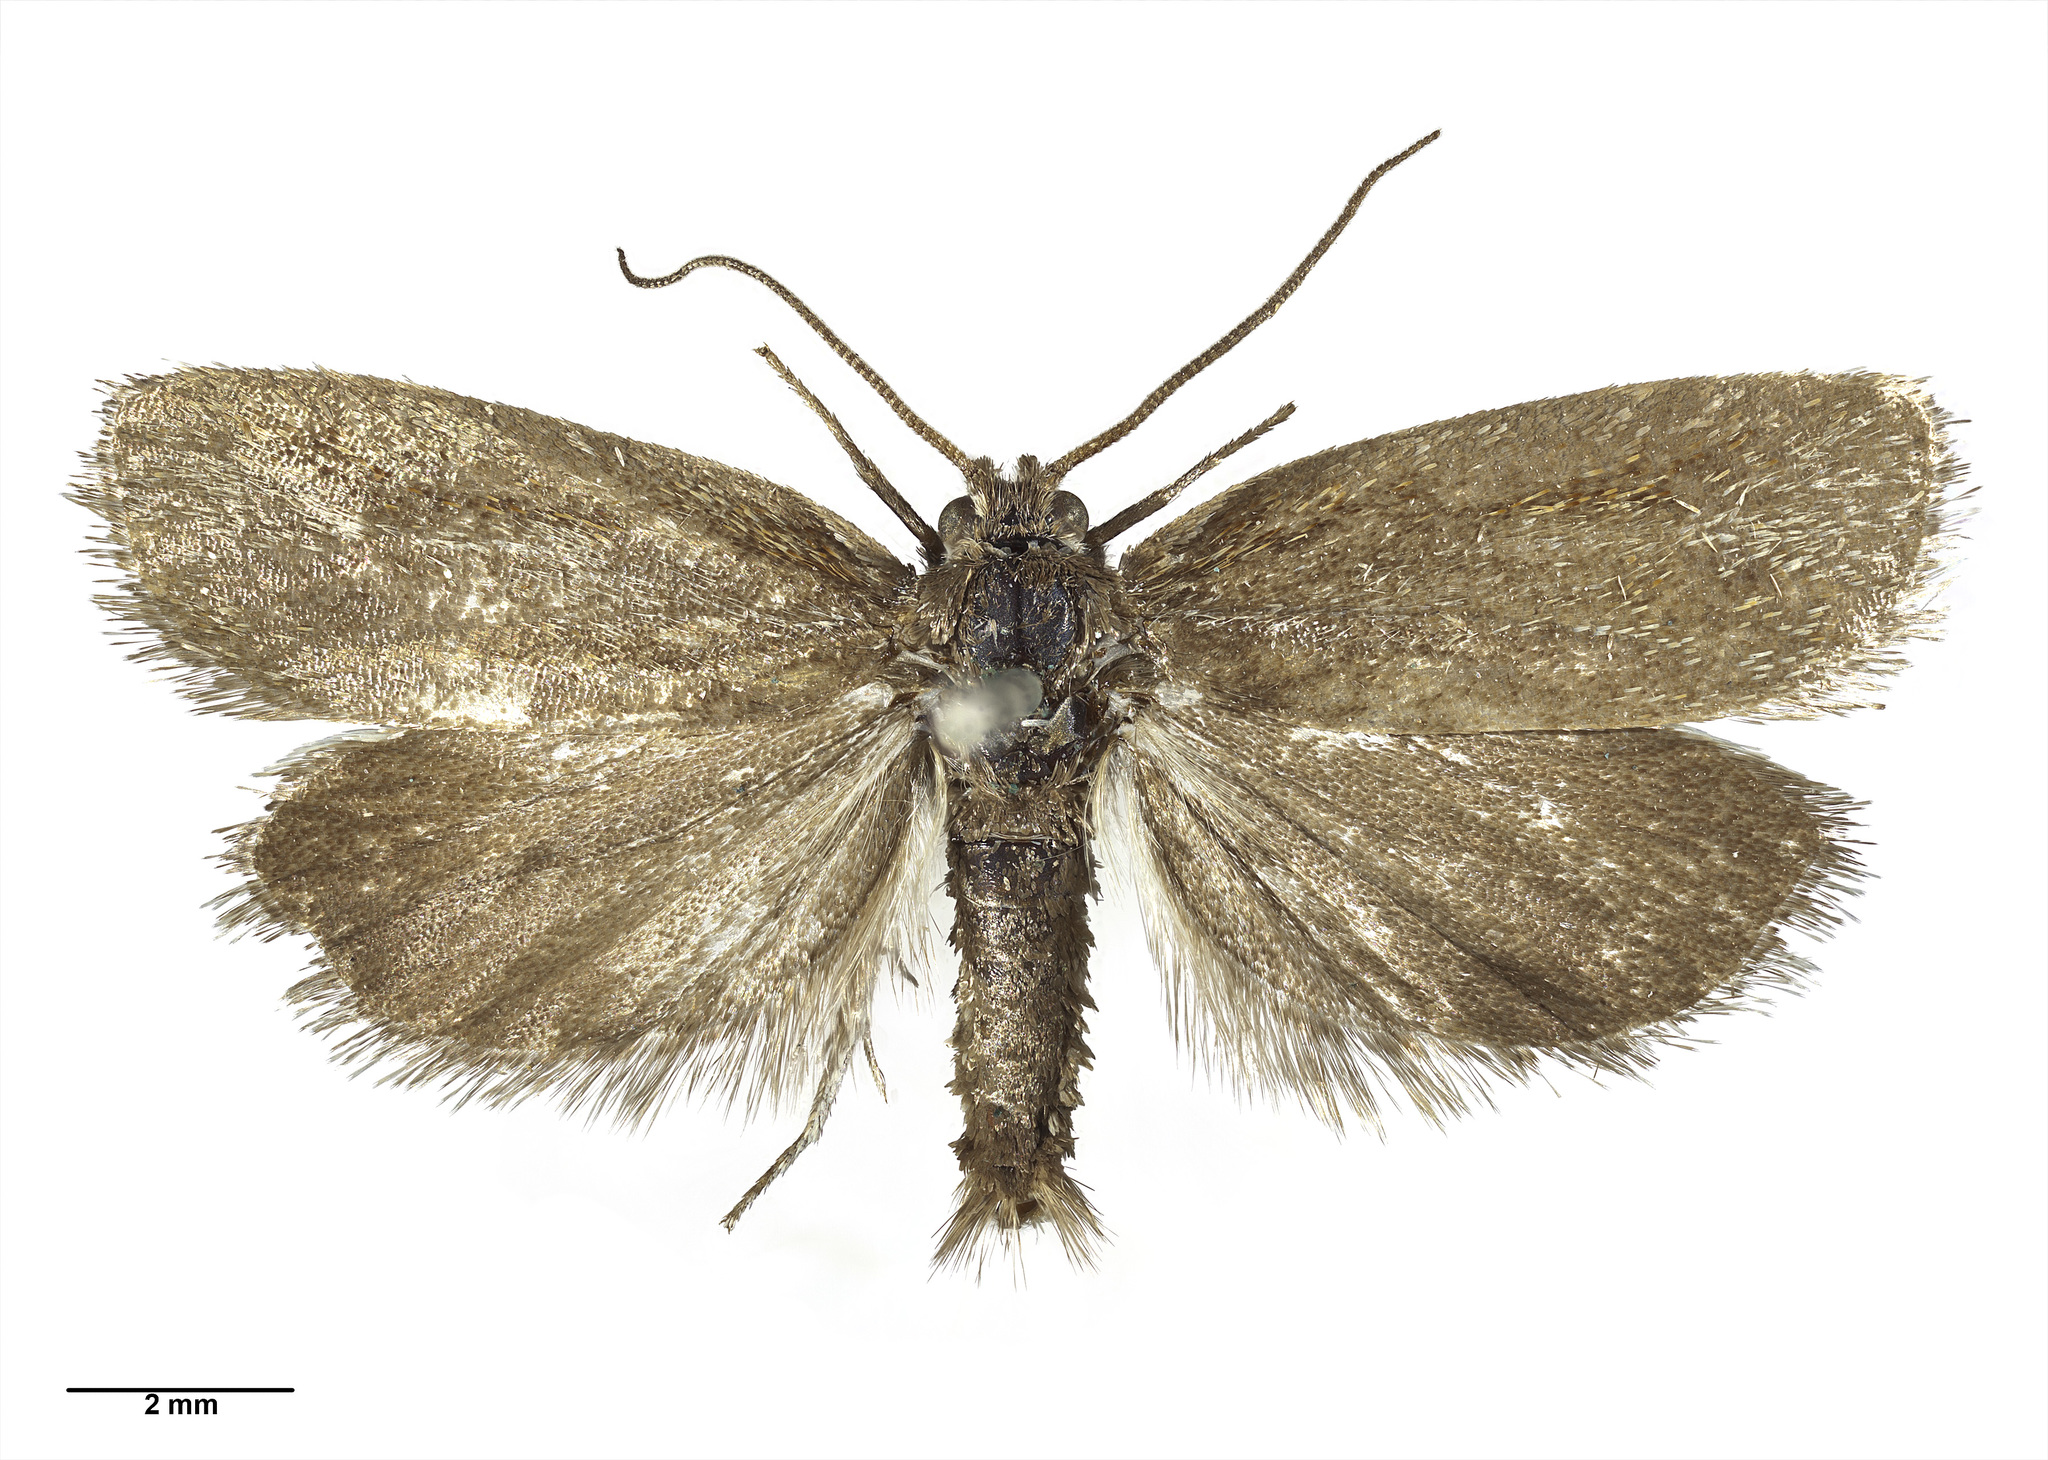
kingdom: Animalia
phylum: Arthropoda
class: Insecta
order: Lepidoptera
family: Tortricidae
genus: Gelophaula
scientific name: Gelophaula aridella
